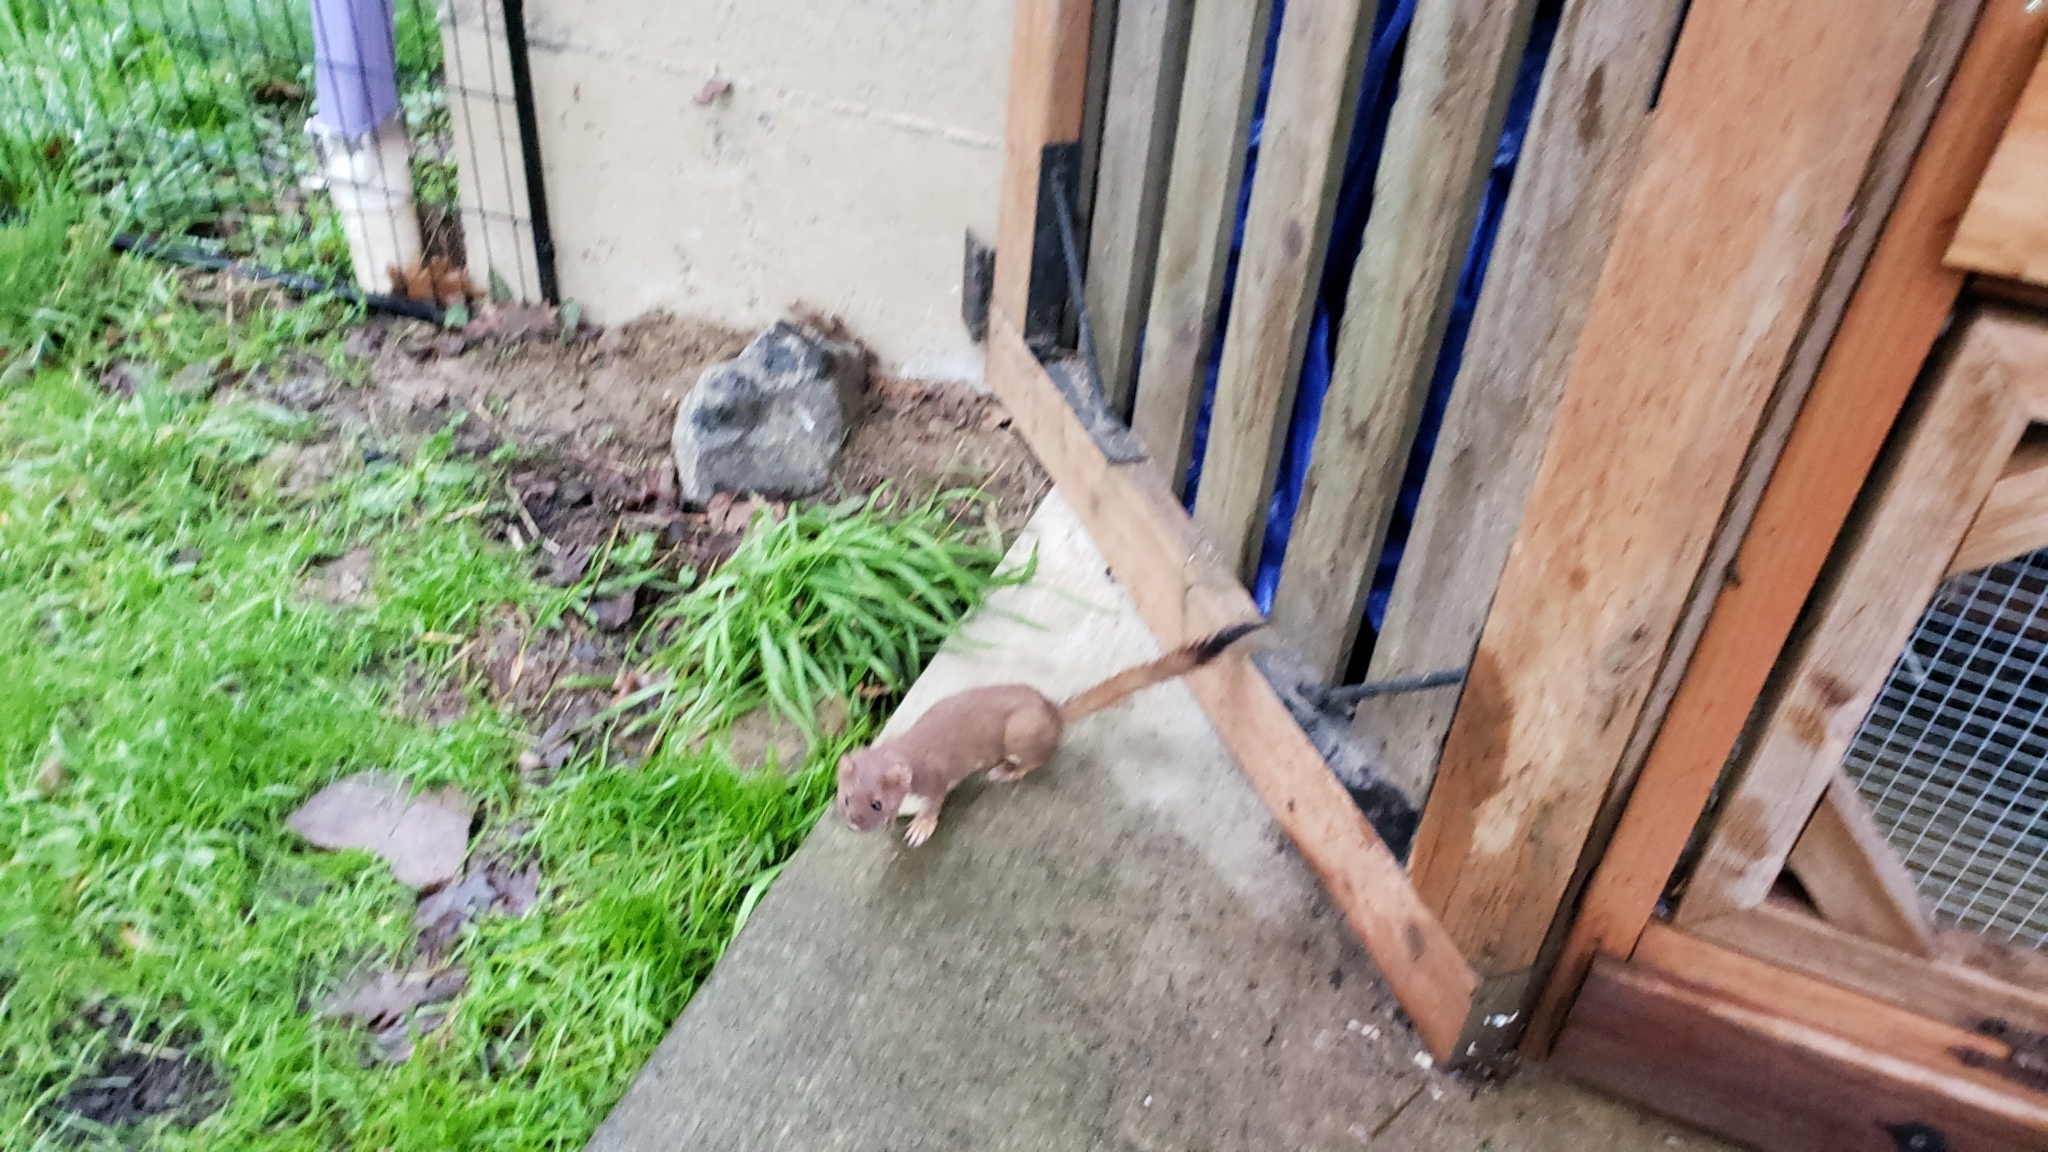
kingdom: Animalia
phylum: Chordata
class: Mammalia
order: Carnivora
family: Mustelidae
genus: Mustela
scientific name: Mustela
